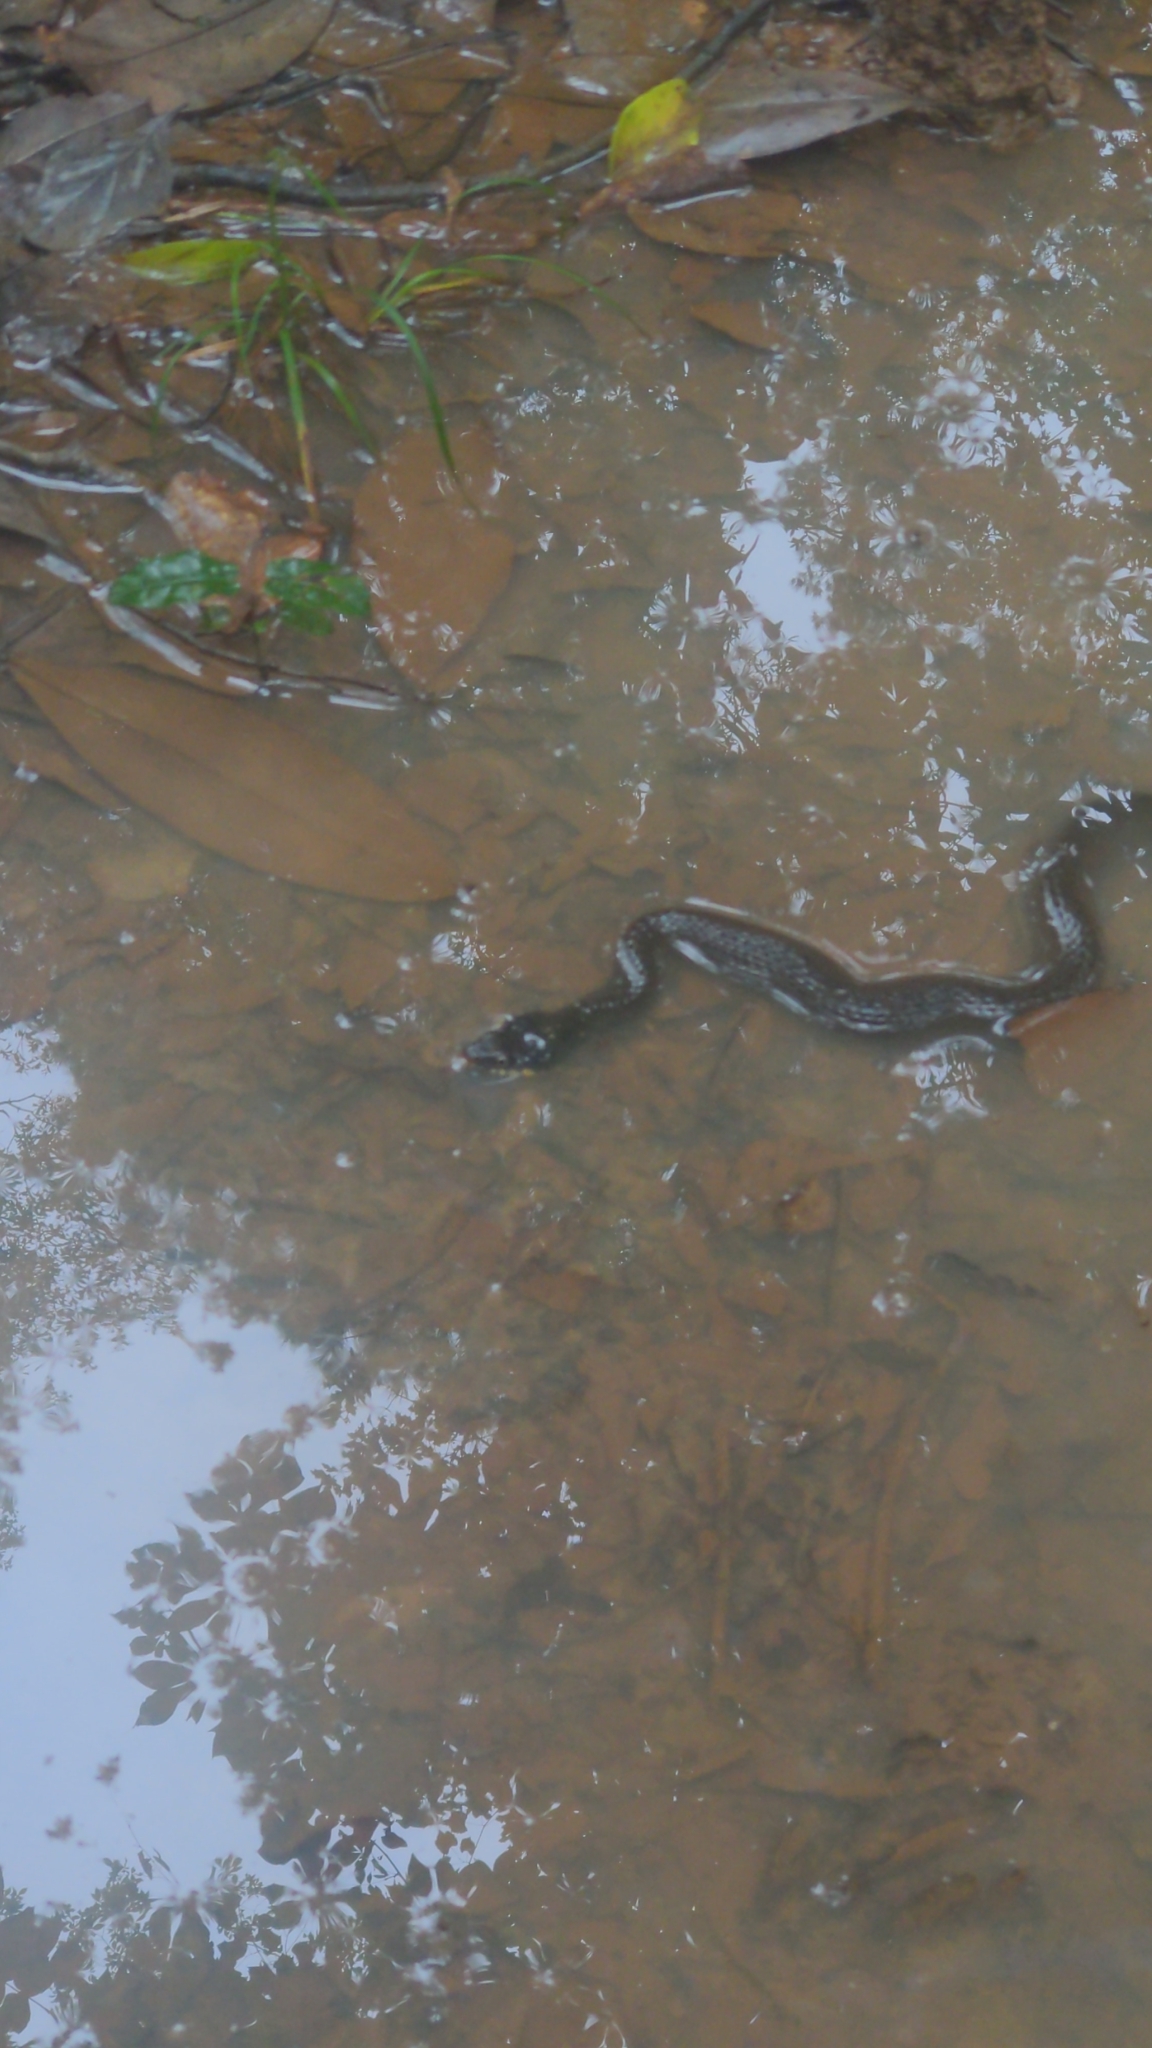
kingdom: Animalia
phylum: Chordata
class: Squamata
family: Colubridae
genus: Nerodia
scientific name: Nerodia erythrogaster
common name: Plainbelly water snake
